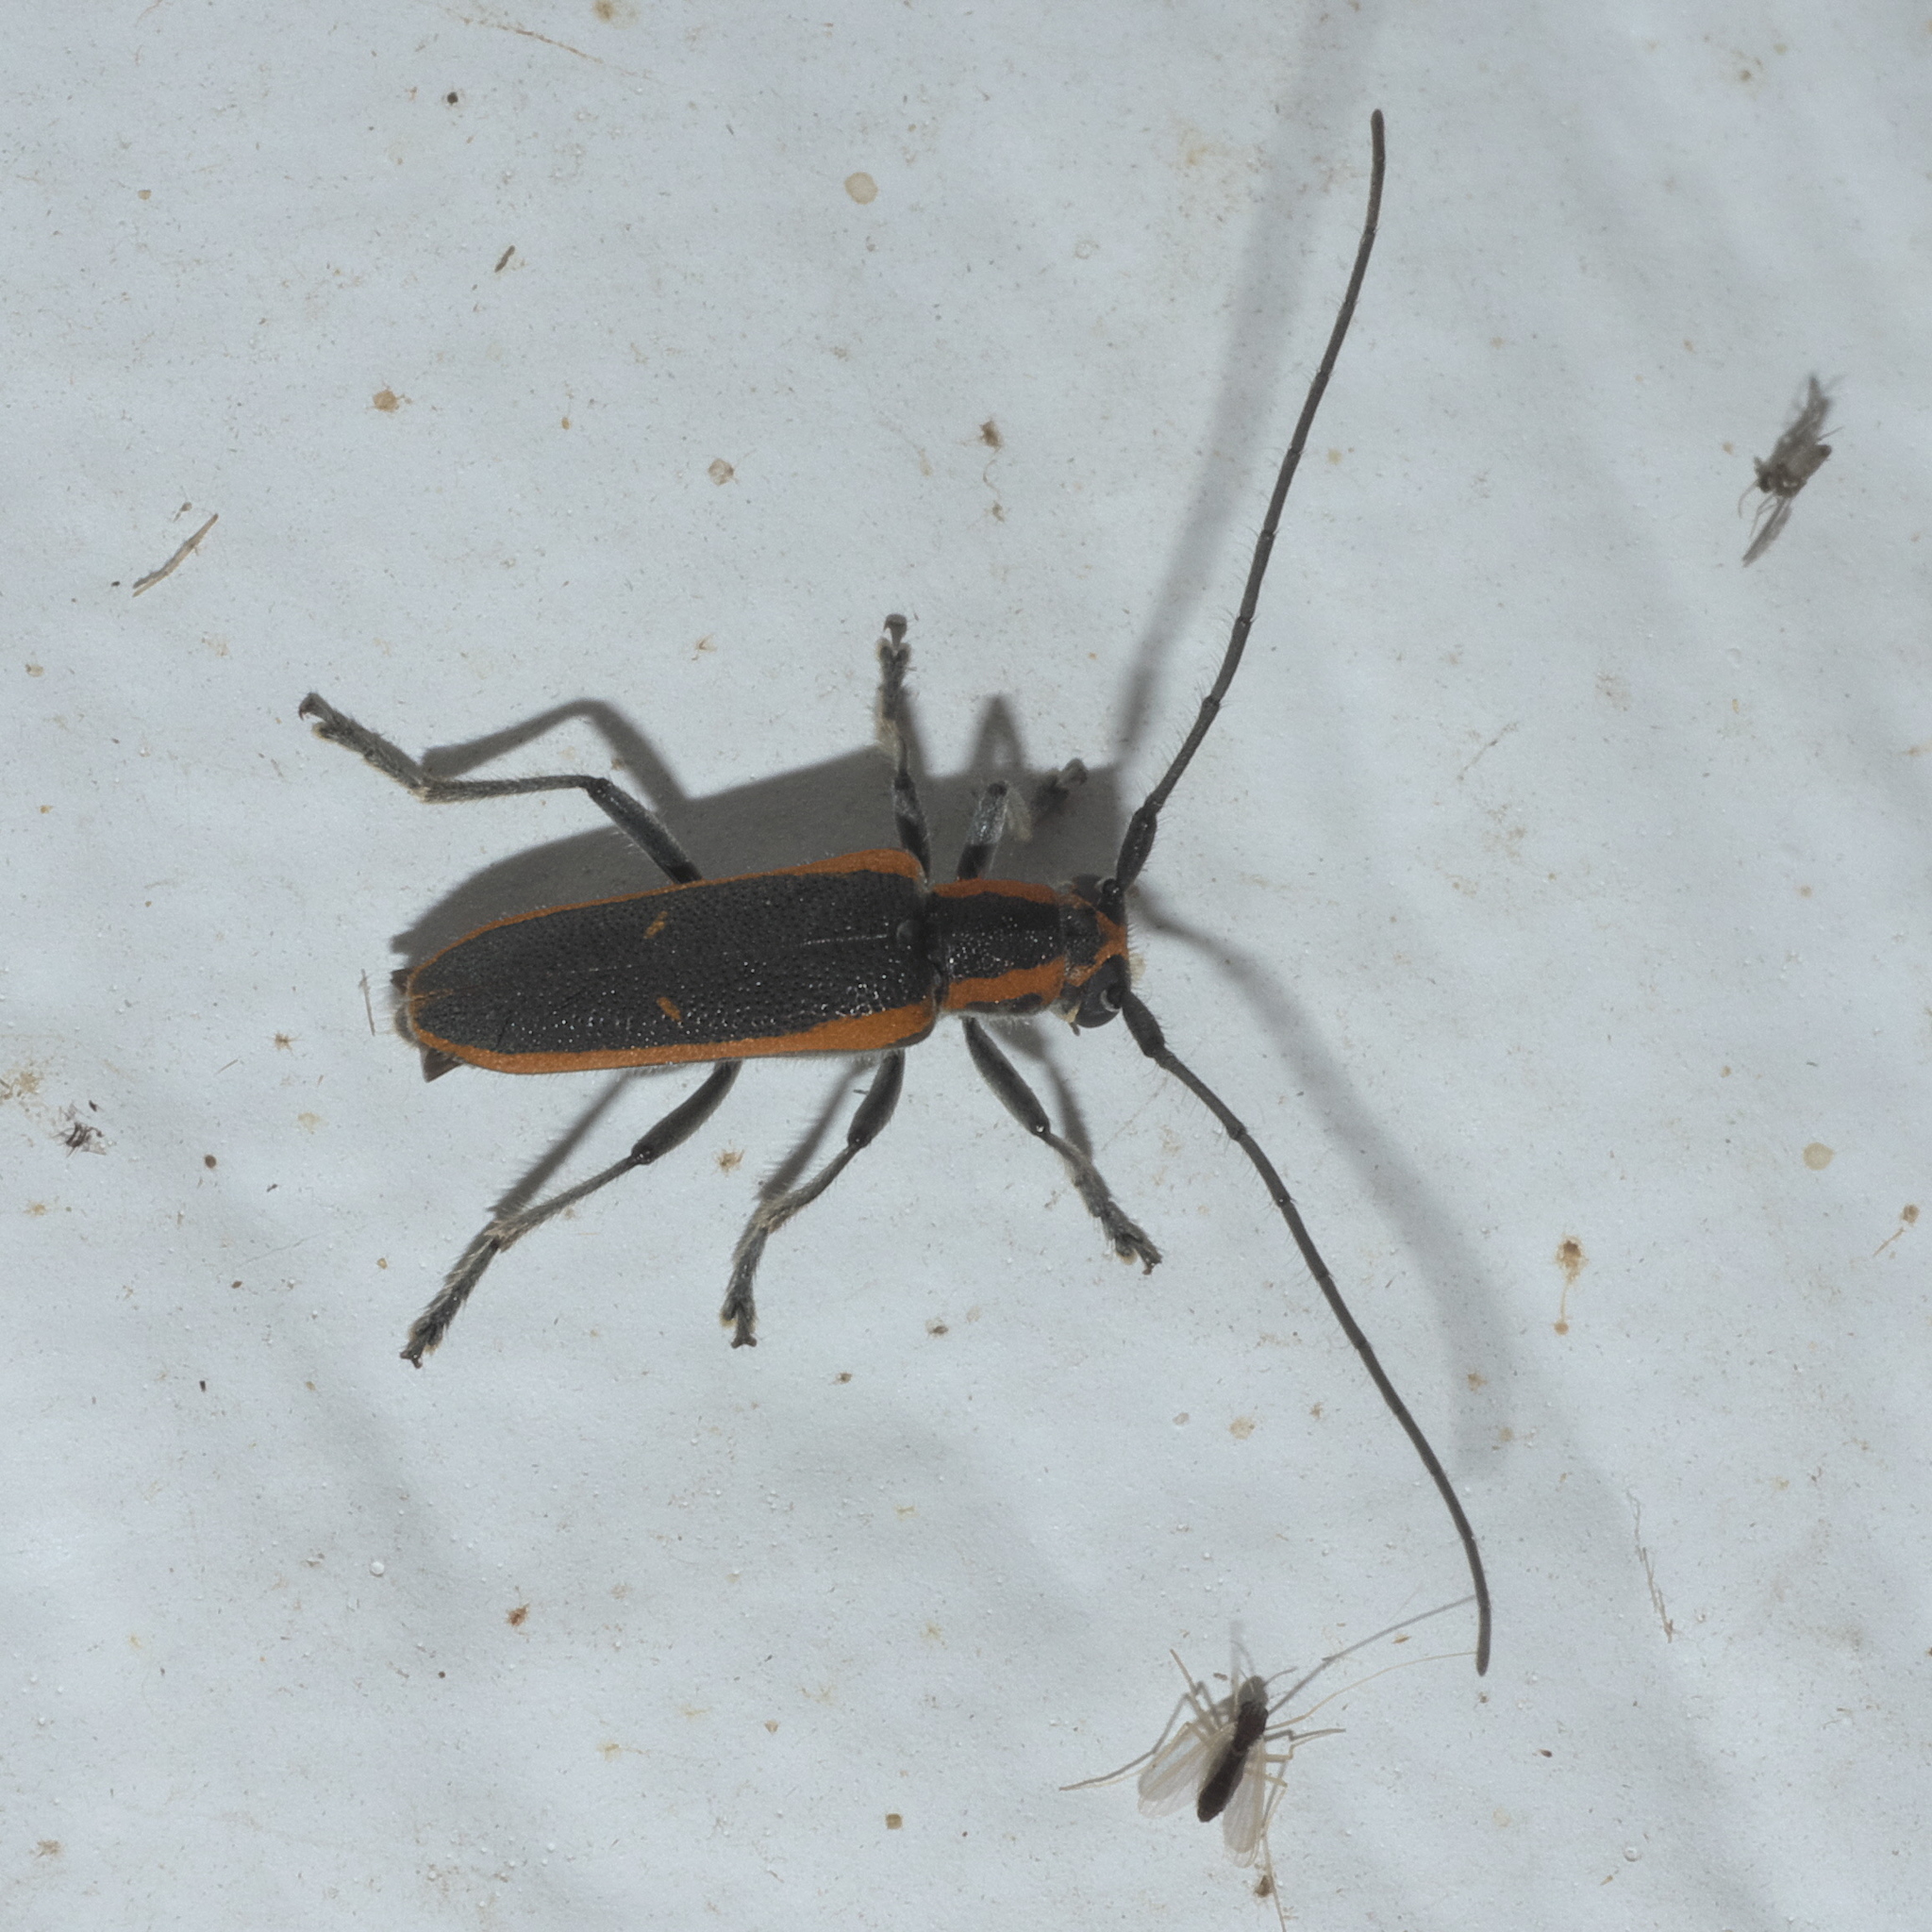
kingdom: Animalia
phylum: Arthropoda
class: Insecta
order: Coleoptera
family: Cerambycidae
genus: Saperda
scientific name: Saperda lateralis
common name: Red-edged saperda
